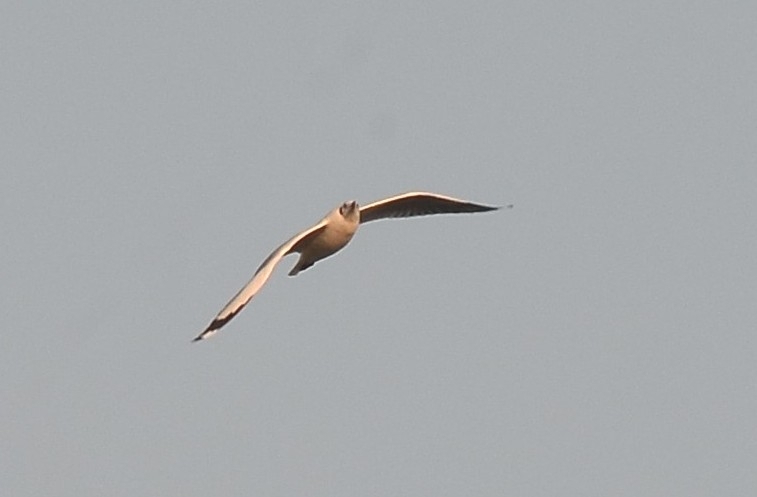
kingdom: Animalia
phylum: Chordata
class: Aves
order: Charadriiformes
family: Laridae
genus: Chroicocephalus
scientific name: Chroicocephalus brunnicephalus
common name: Brown-headed gull
